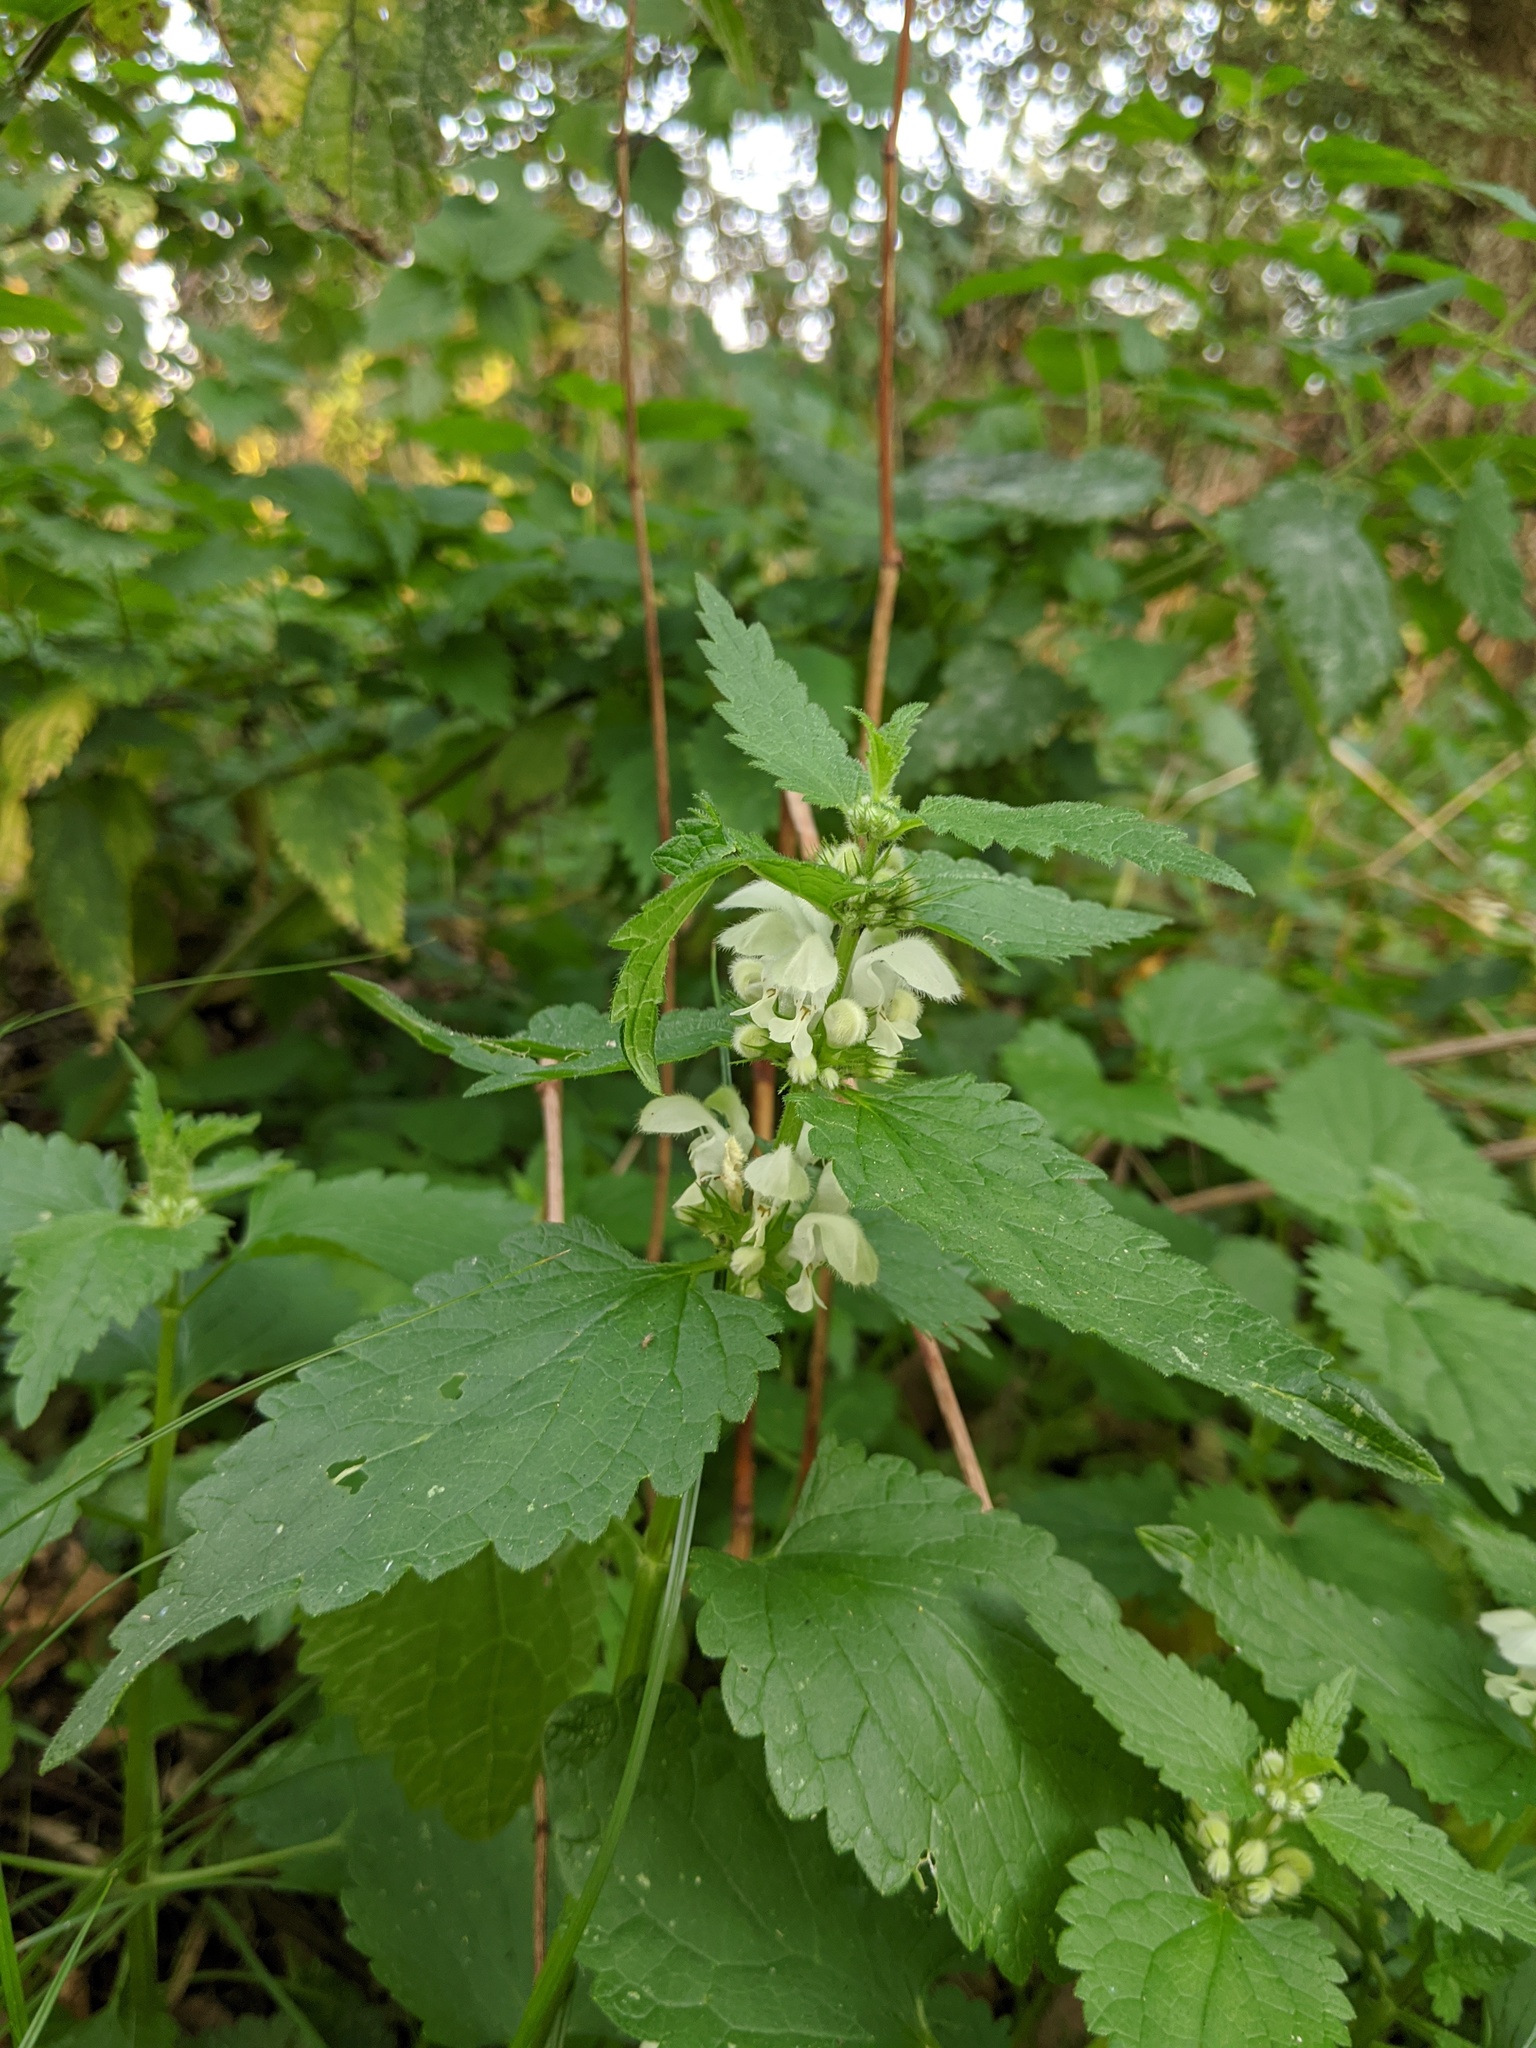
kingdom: Plantae
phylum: Tracheophyta
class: Magnoliopsida
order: Lamiales
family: Lamiaceae
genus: Lamium
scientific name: Lamium album
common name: White dead-nettle
